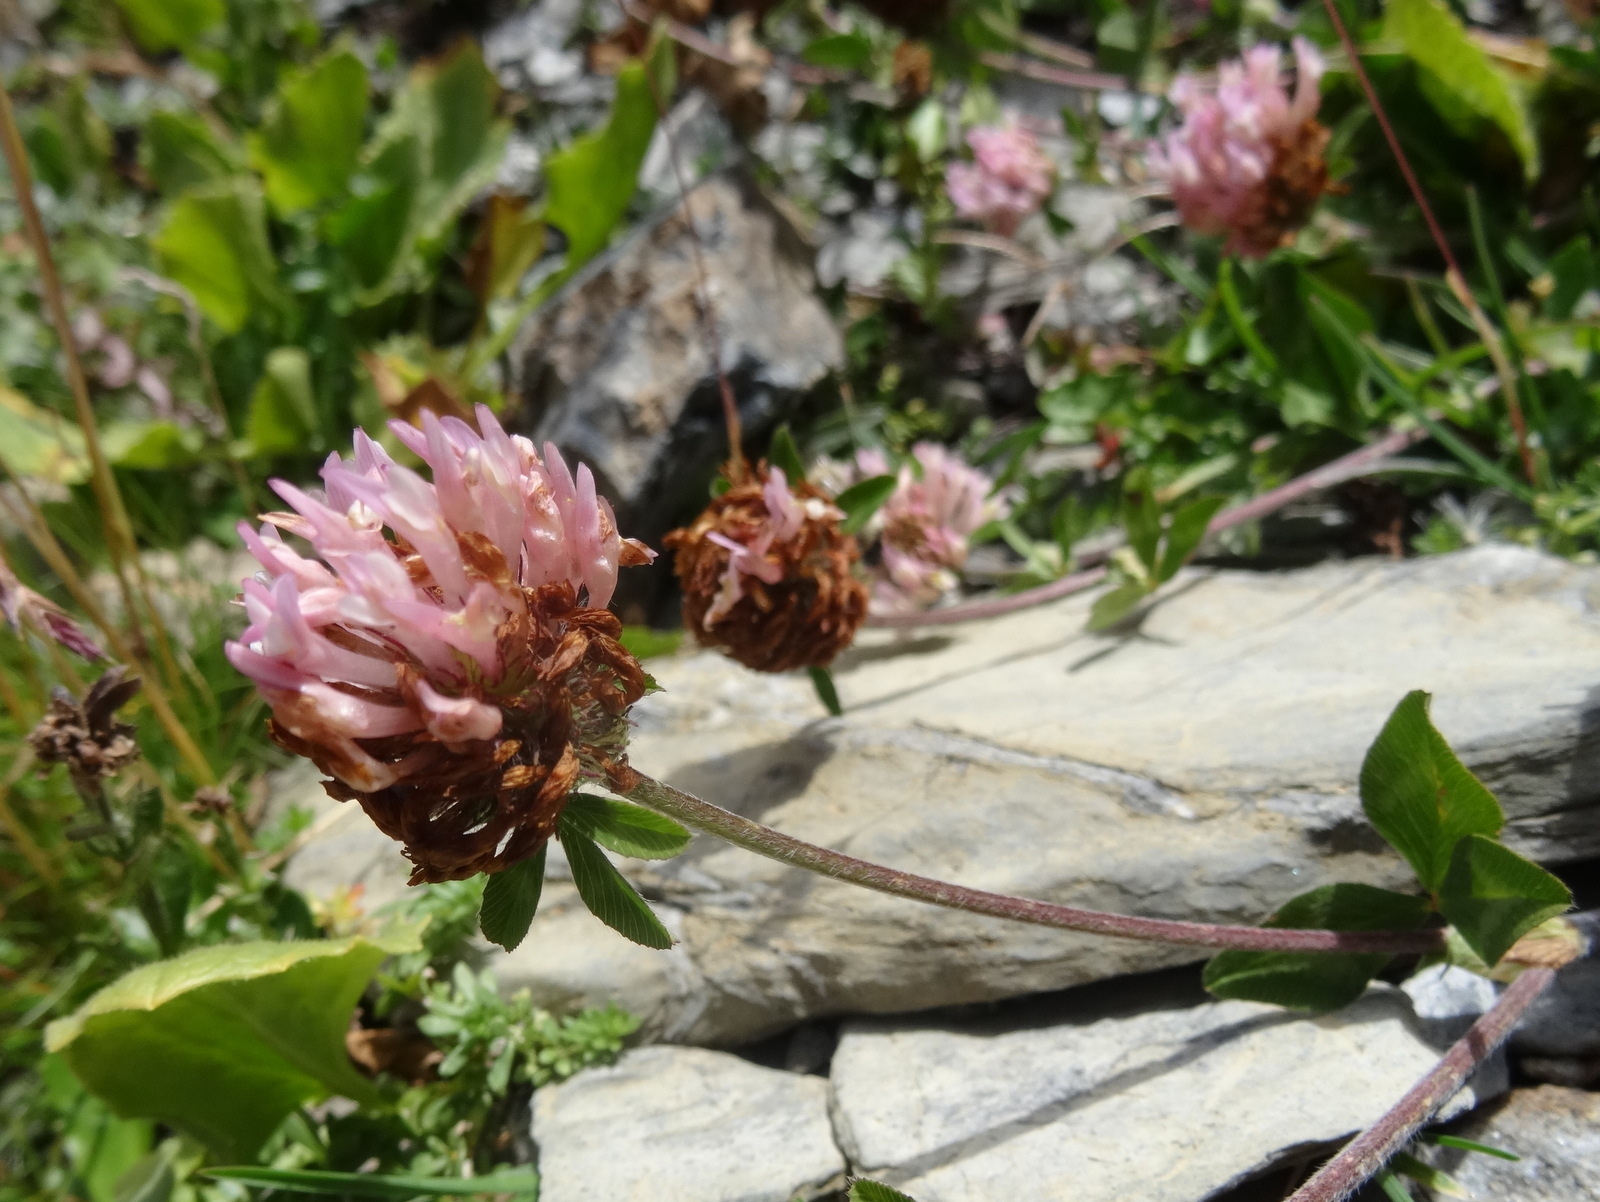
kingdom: Plantae
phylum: Tracheophyta
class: Magnoliopsida
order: Fabales
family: Fabaceae
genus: Trifolium
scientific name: Trifolium pratense
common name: Red clover
